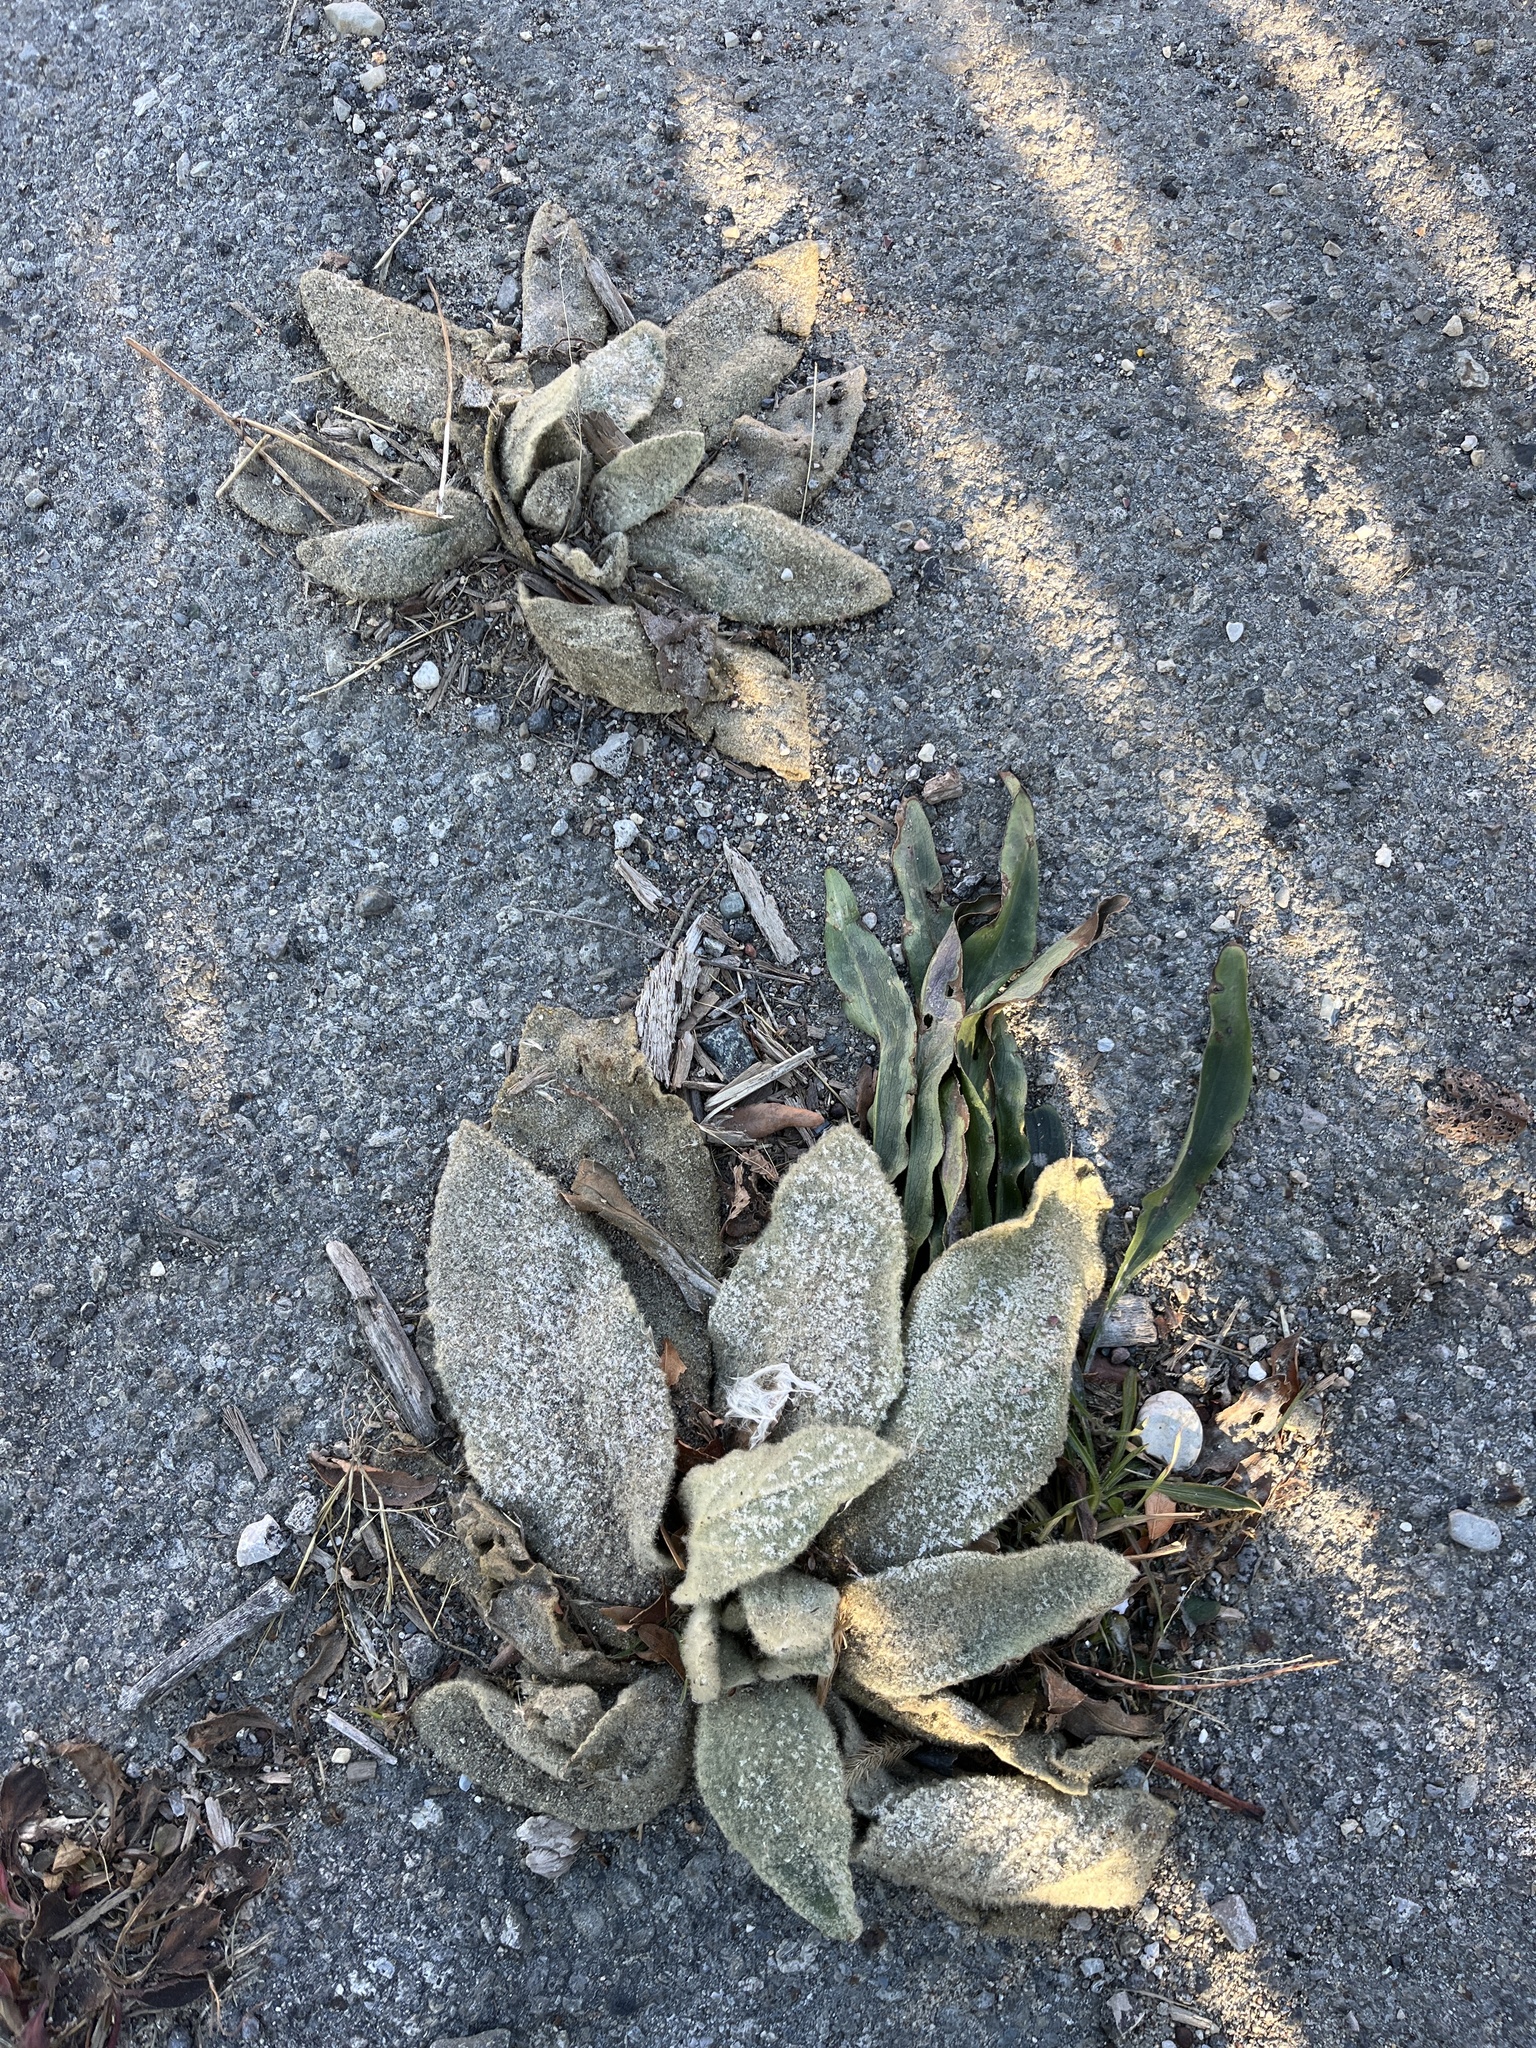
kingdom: Plantae
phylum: Tracheophyta
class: Magnoliopsida
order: Lamiales
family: Scrophulariaceae
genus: Verbascum
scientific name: Verbascum thapsus
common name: Common mullein
